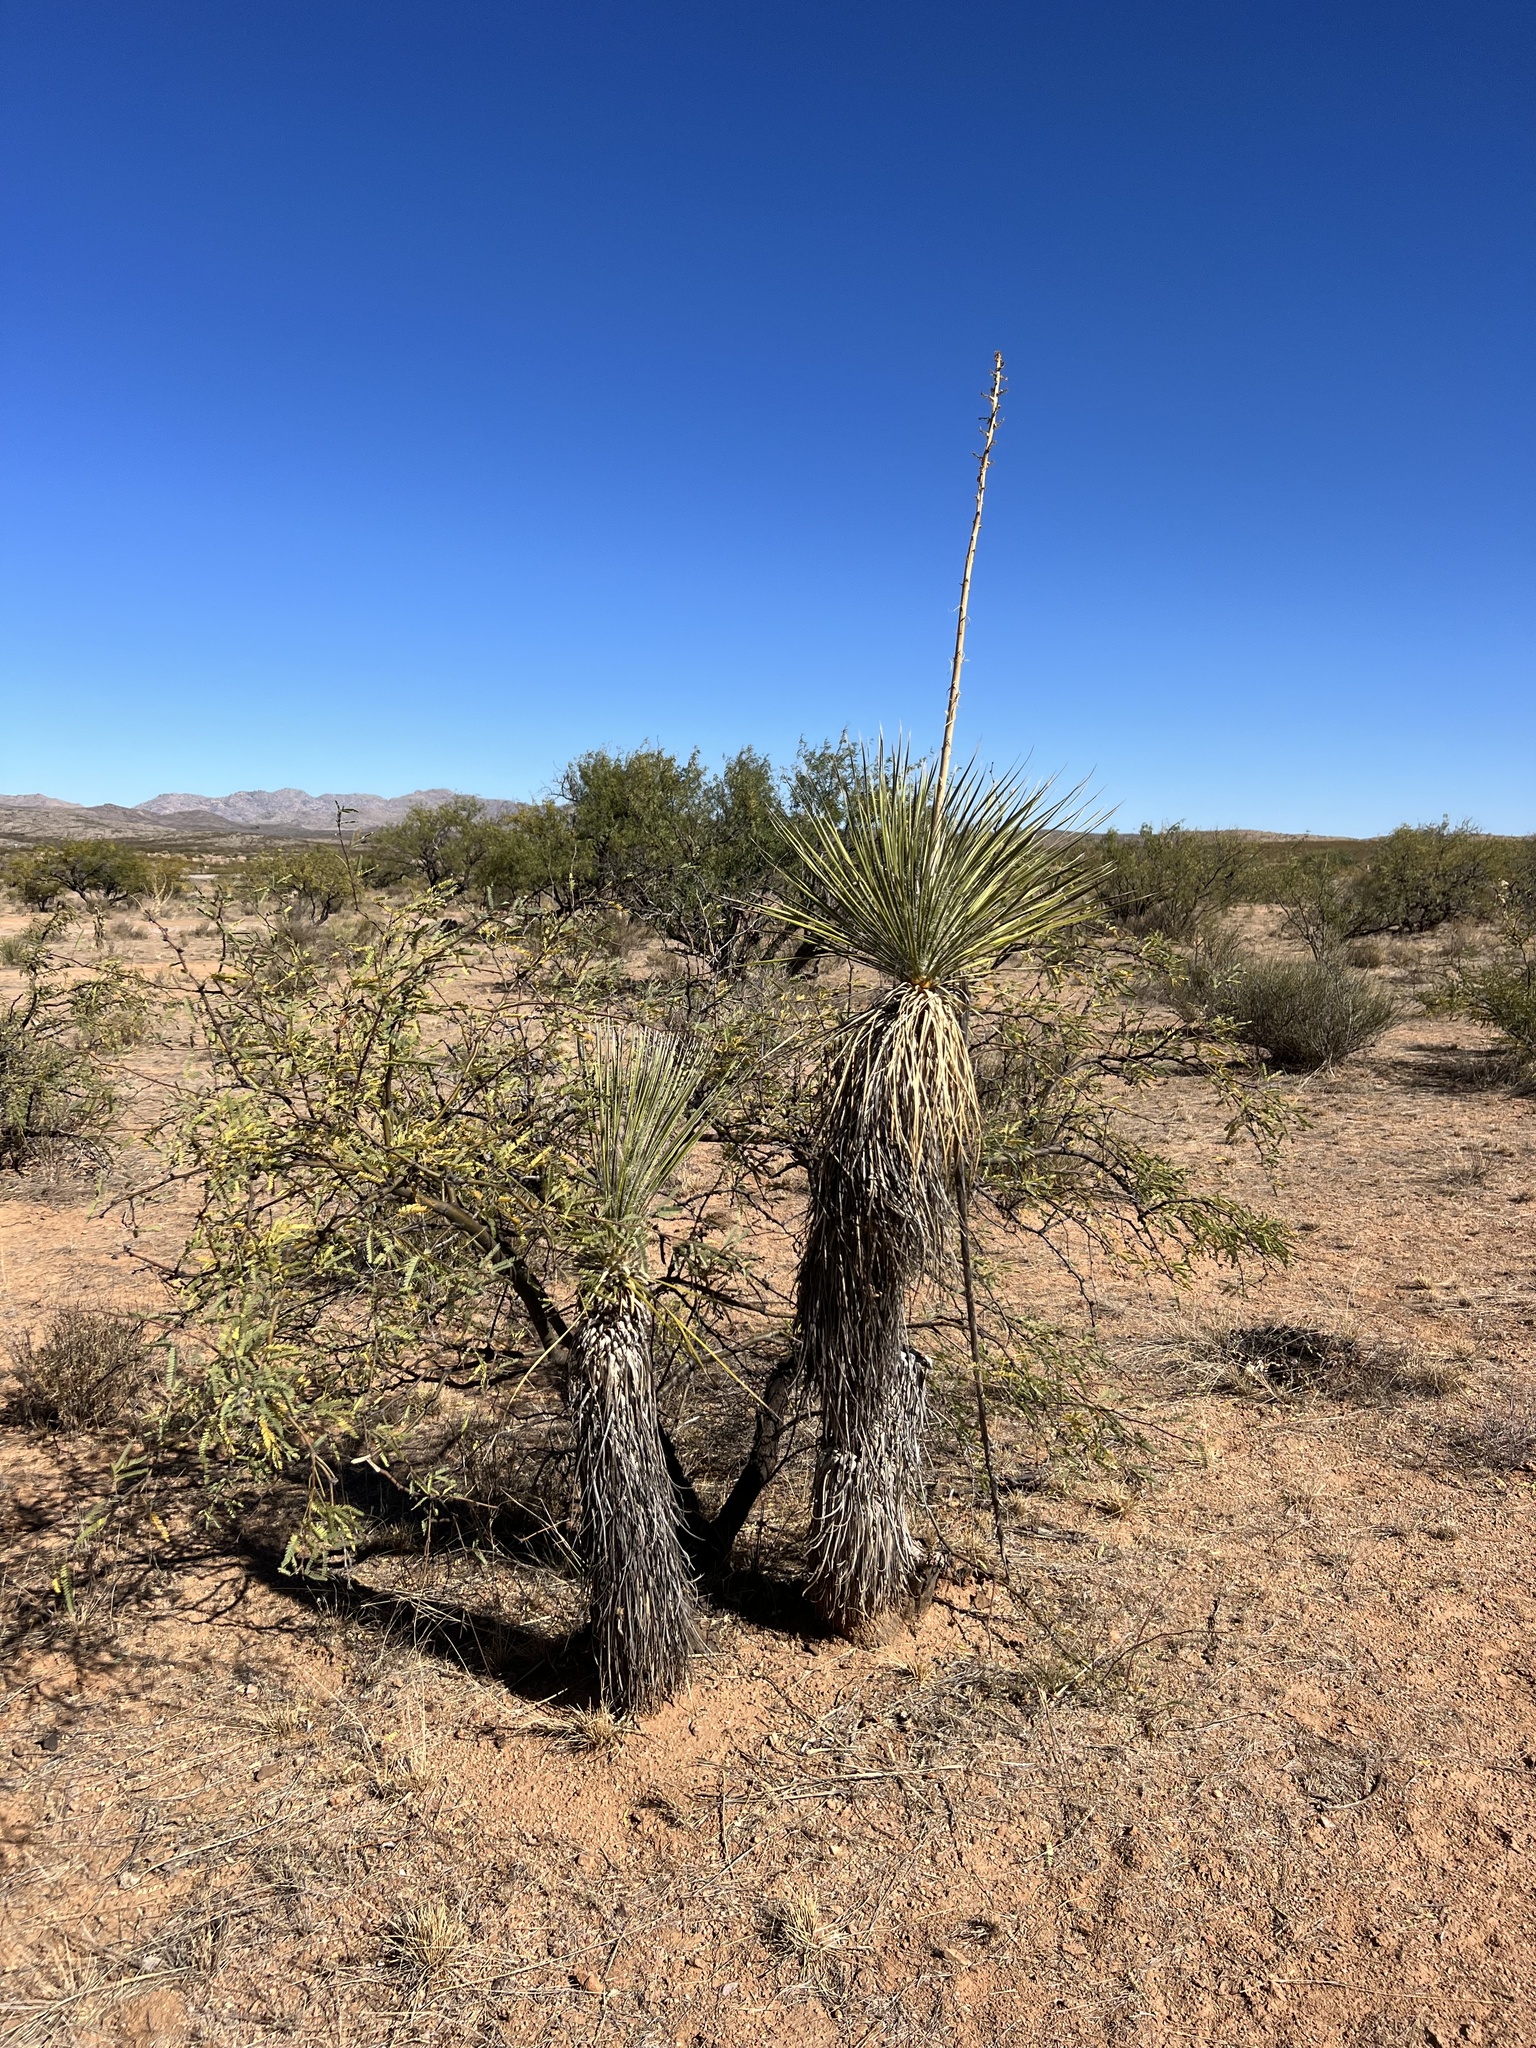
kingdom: Plantae
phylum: Tracheophyta
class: Liliopsida
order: Asparagales
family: Asparagaceae
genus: Yucca
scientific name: Yucca elata
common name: Palmella
